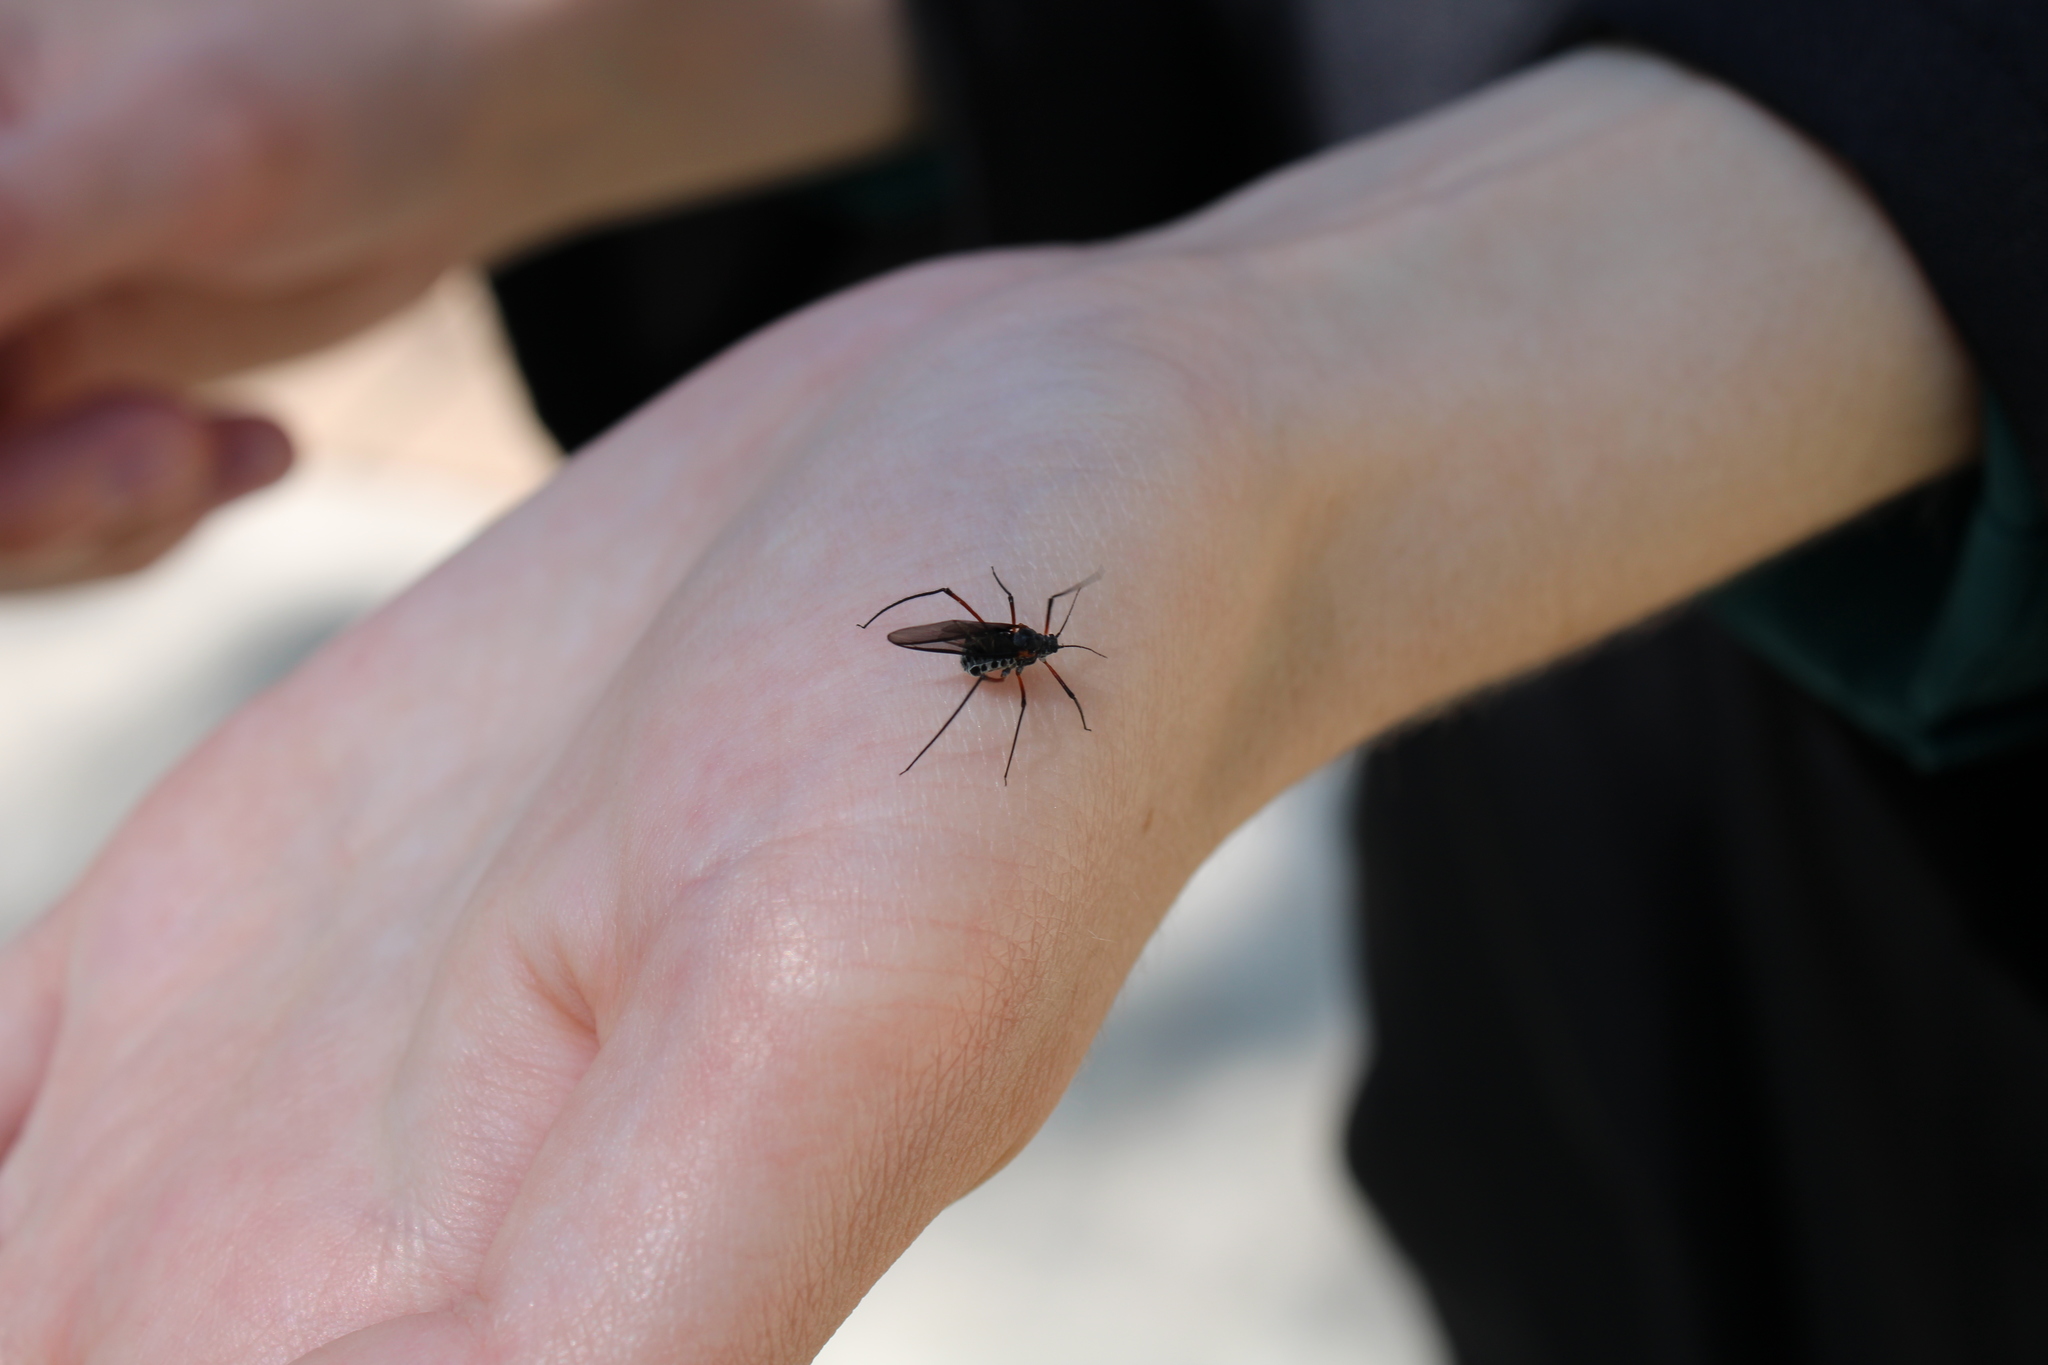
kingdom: Animalia
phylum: Arthropoda
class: Insecta
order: Hemiptera
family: Aphididae
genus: Longistigma
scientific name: Longistigma caryae
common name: Giant bark aphid
